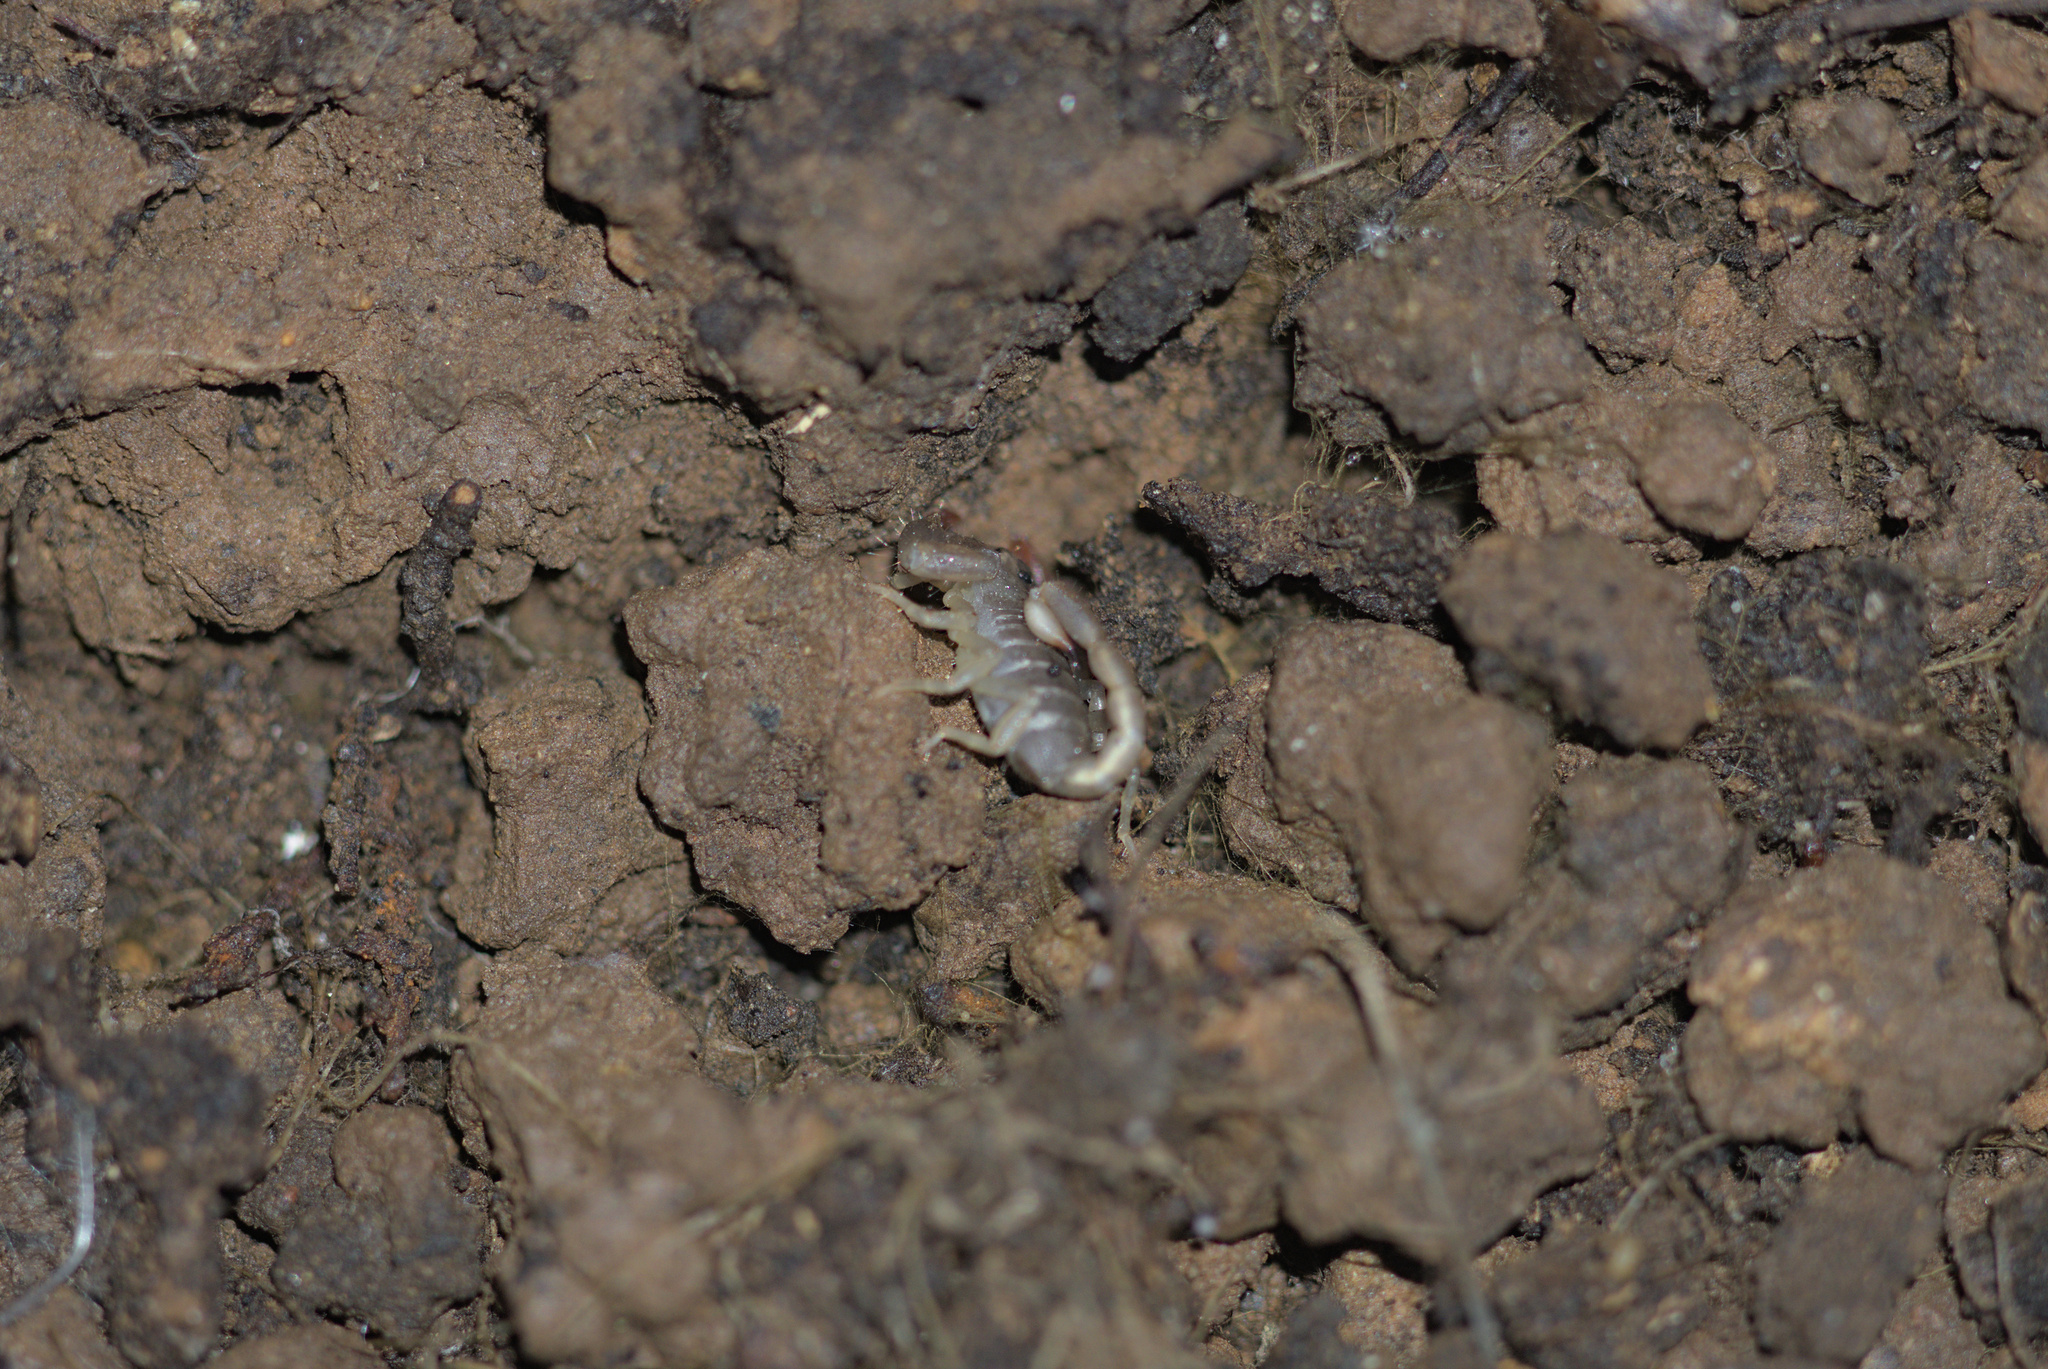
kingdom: Animalia
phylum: Arthropoda
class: Arachnida
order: Scorpiones
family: Chactidae
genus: Uroctonus
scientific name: Uroctonus mordax
